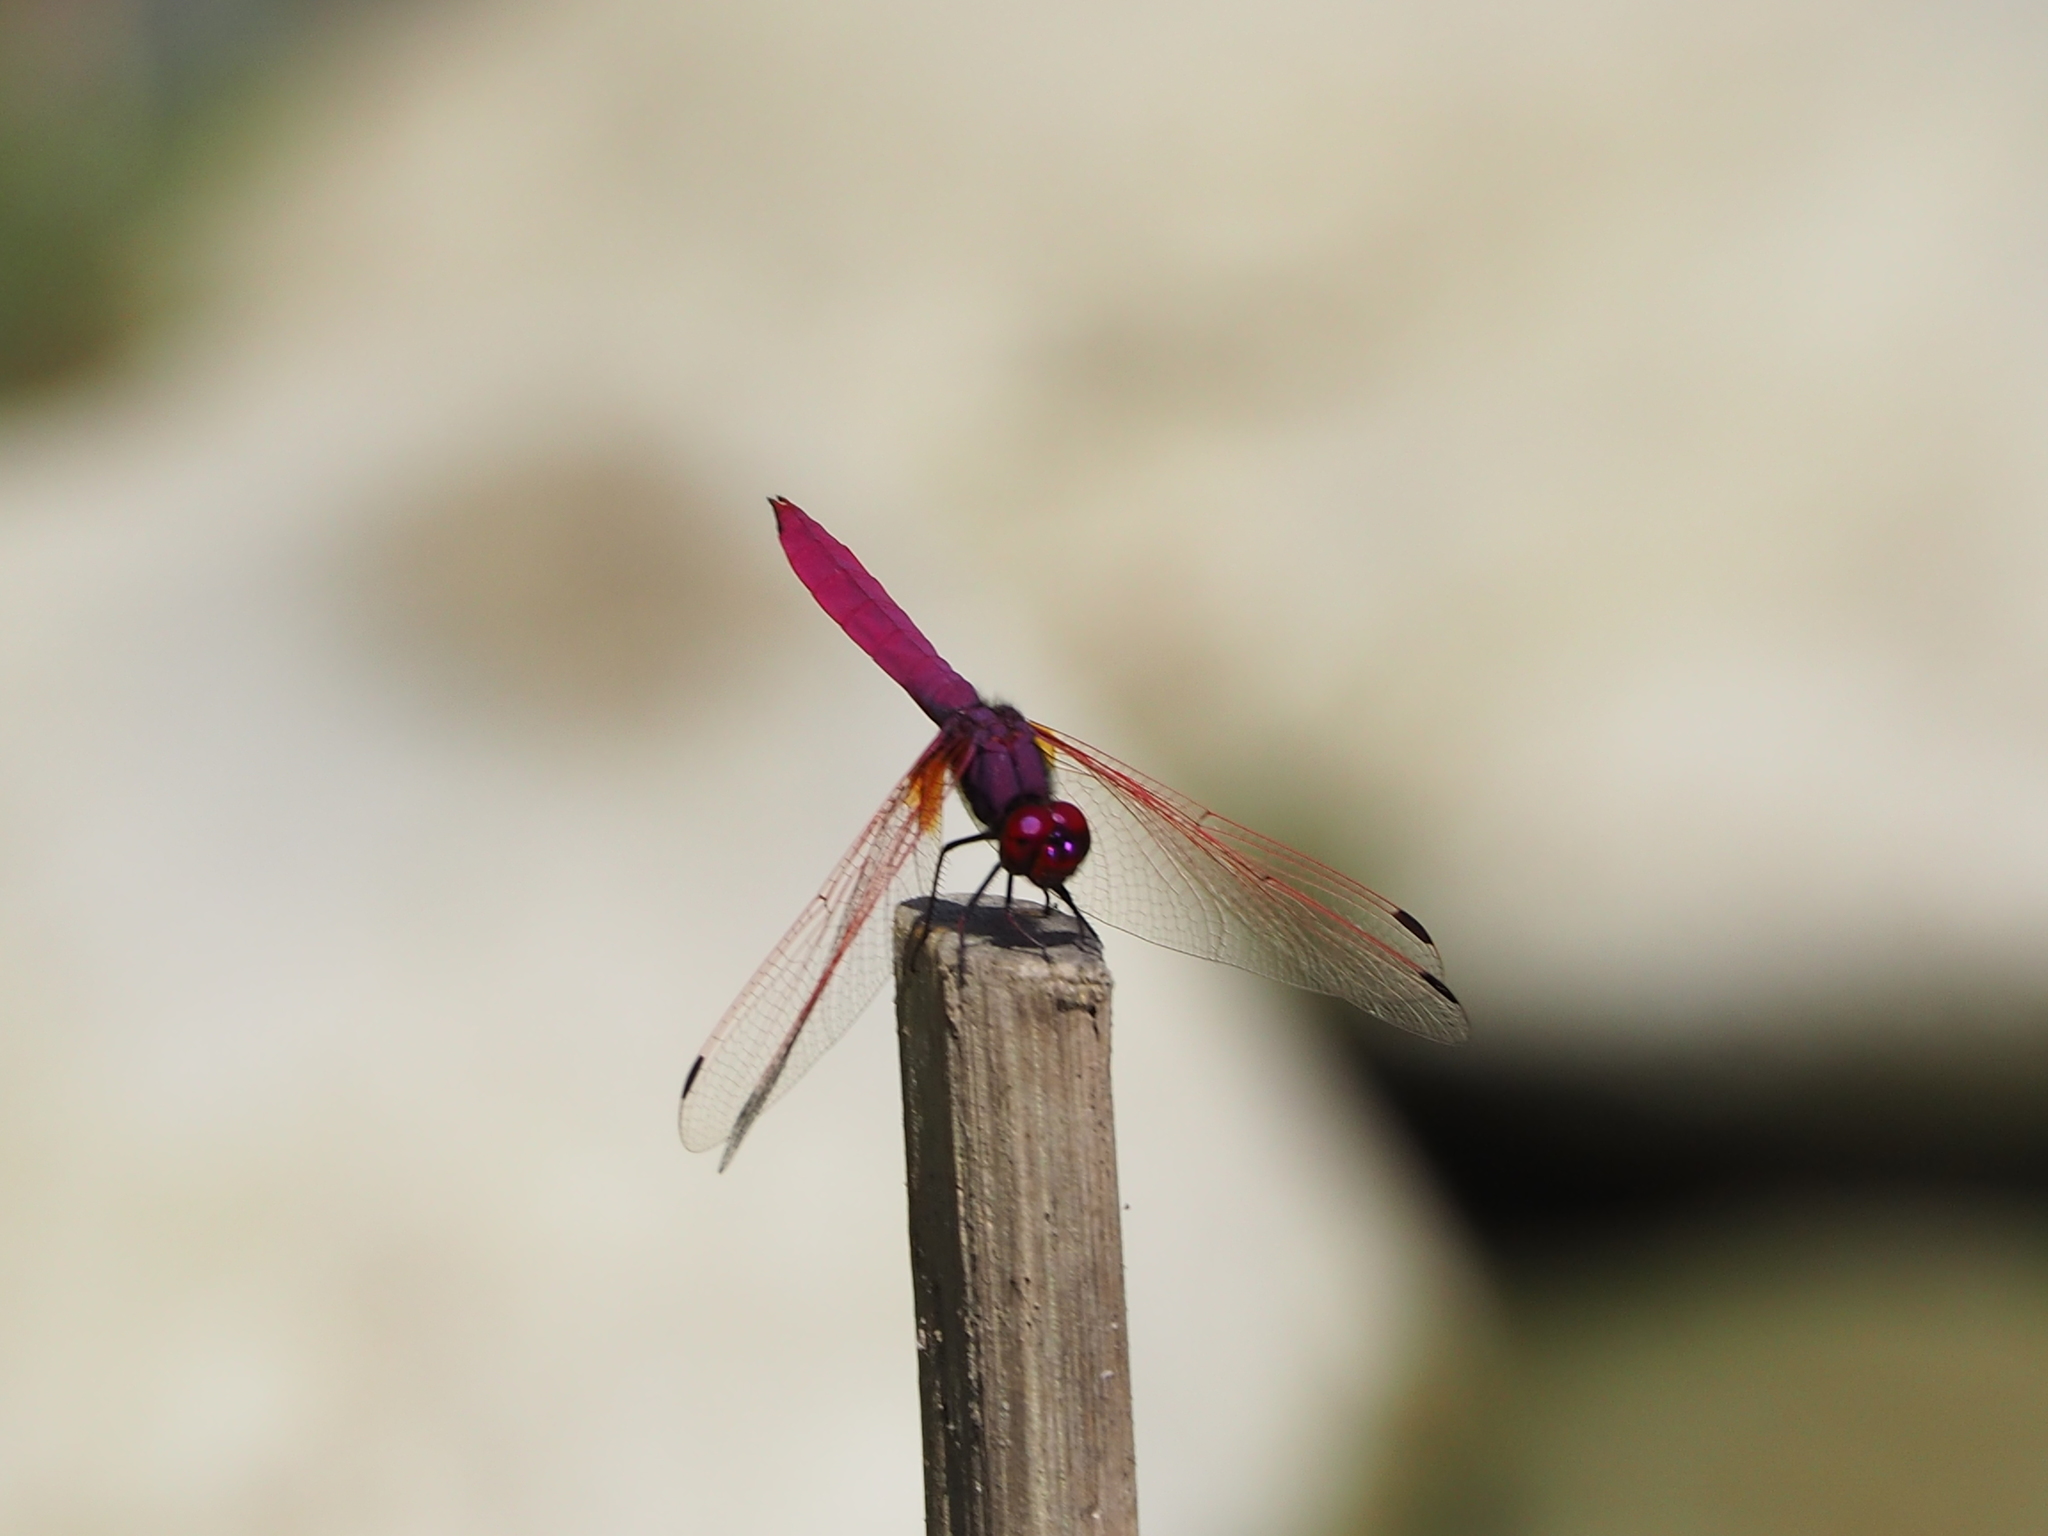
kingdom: Animalia
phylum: Arthropoda
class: Insecta
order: Odonata
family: Libellulidae
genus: Trithemis
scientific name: Trithemis aurora
